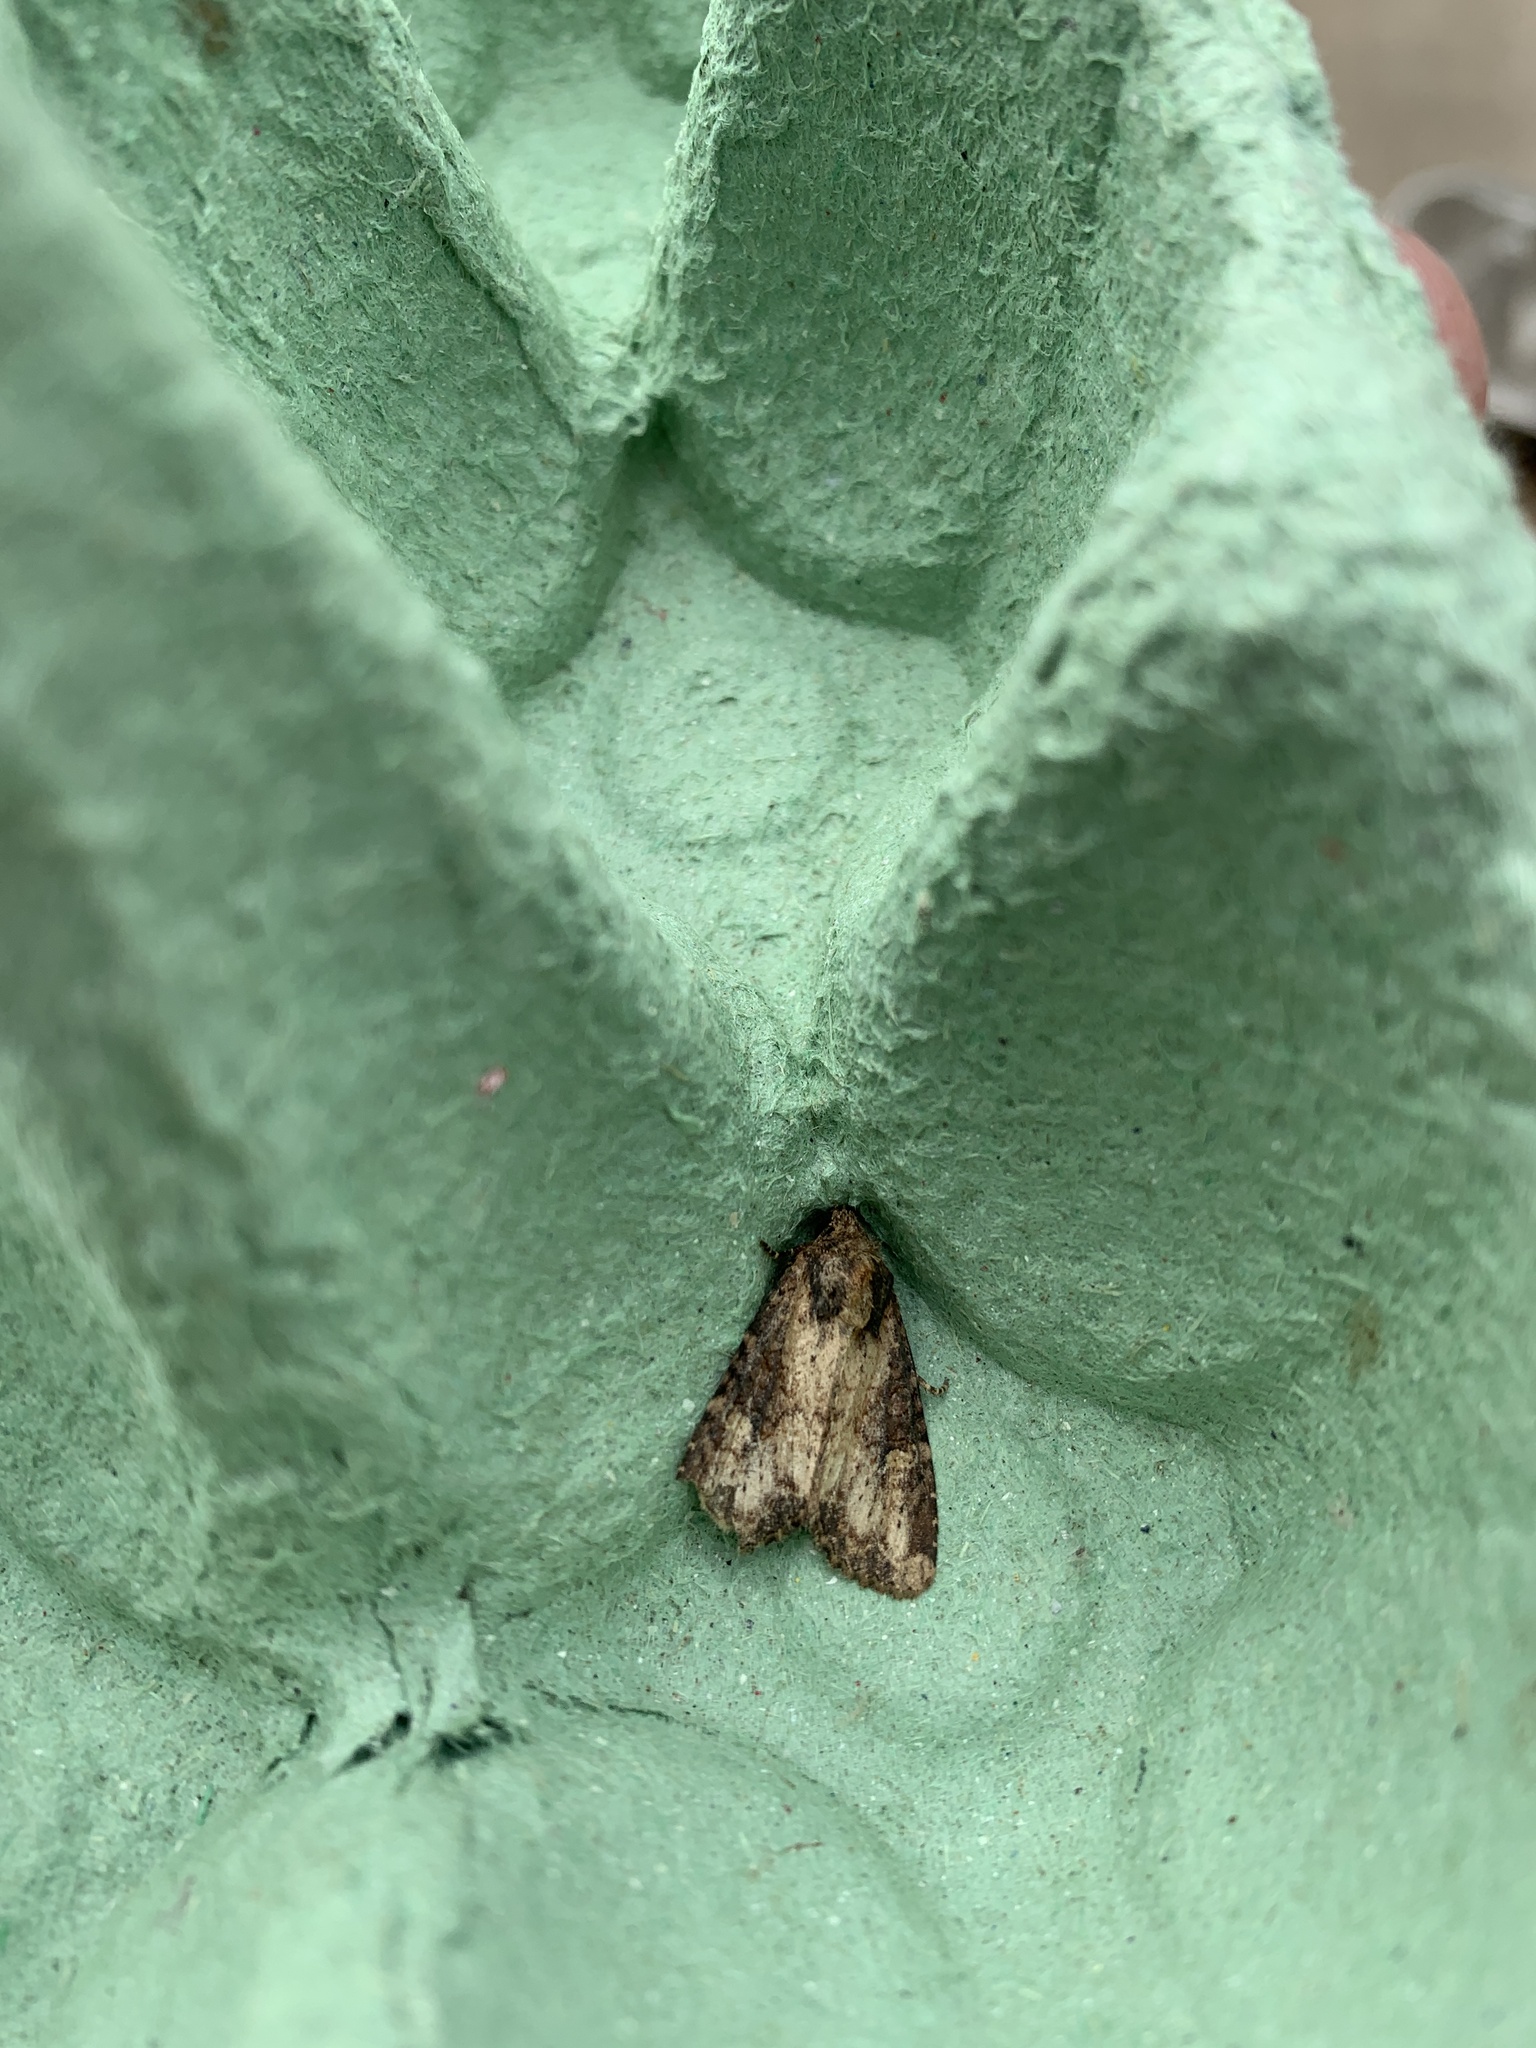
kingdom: Animalia
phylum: Arthropoda
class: Insecta
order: Lepidoptera
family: Noctuidae
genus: Mesapamea
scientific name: Mesapamea secalis
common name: Common rustic
